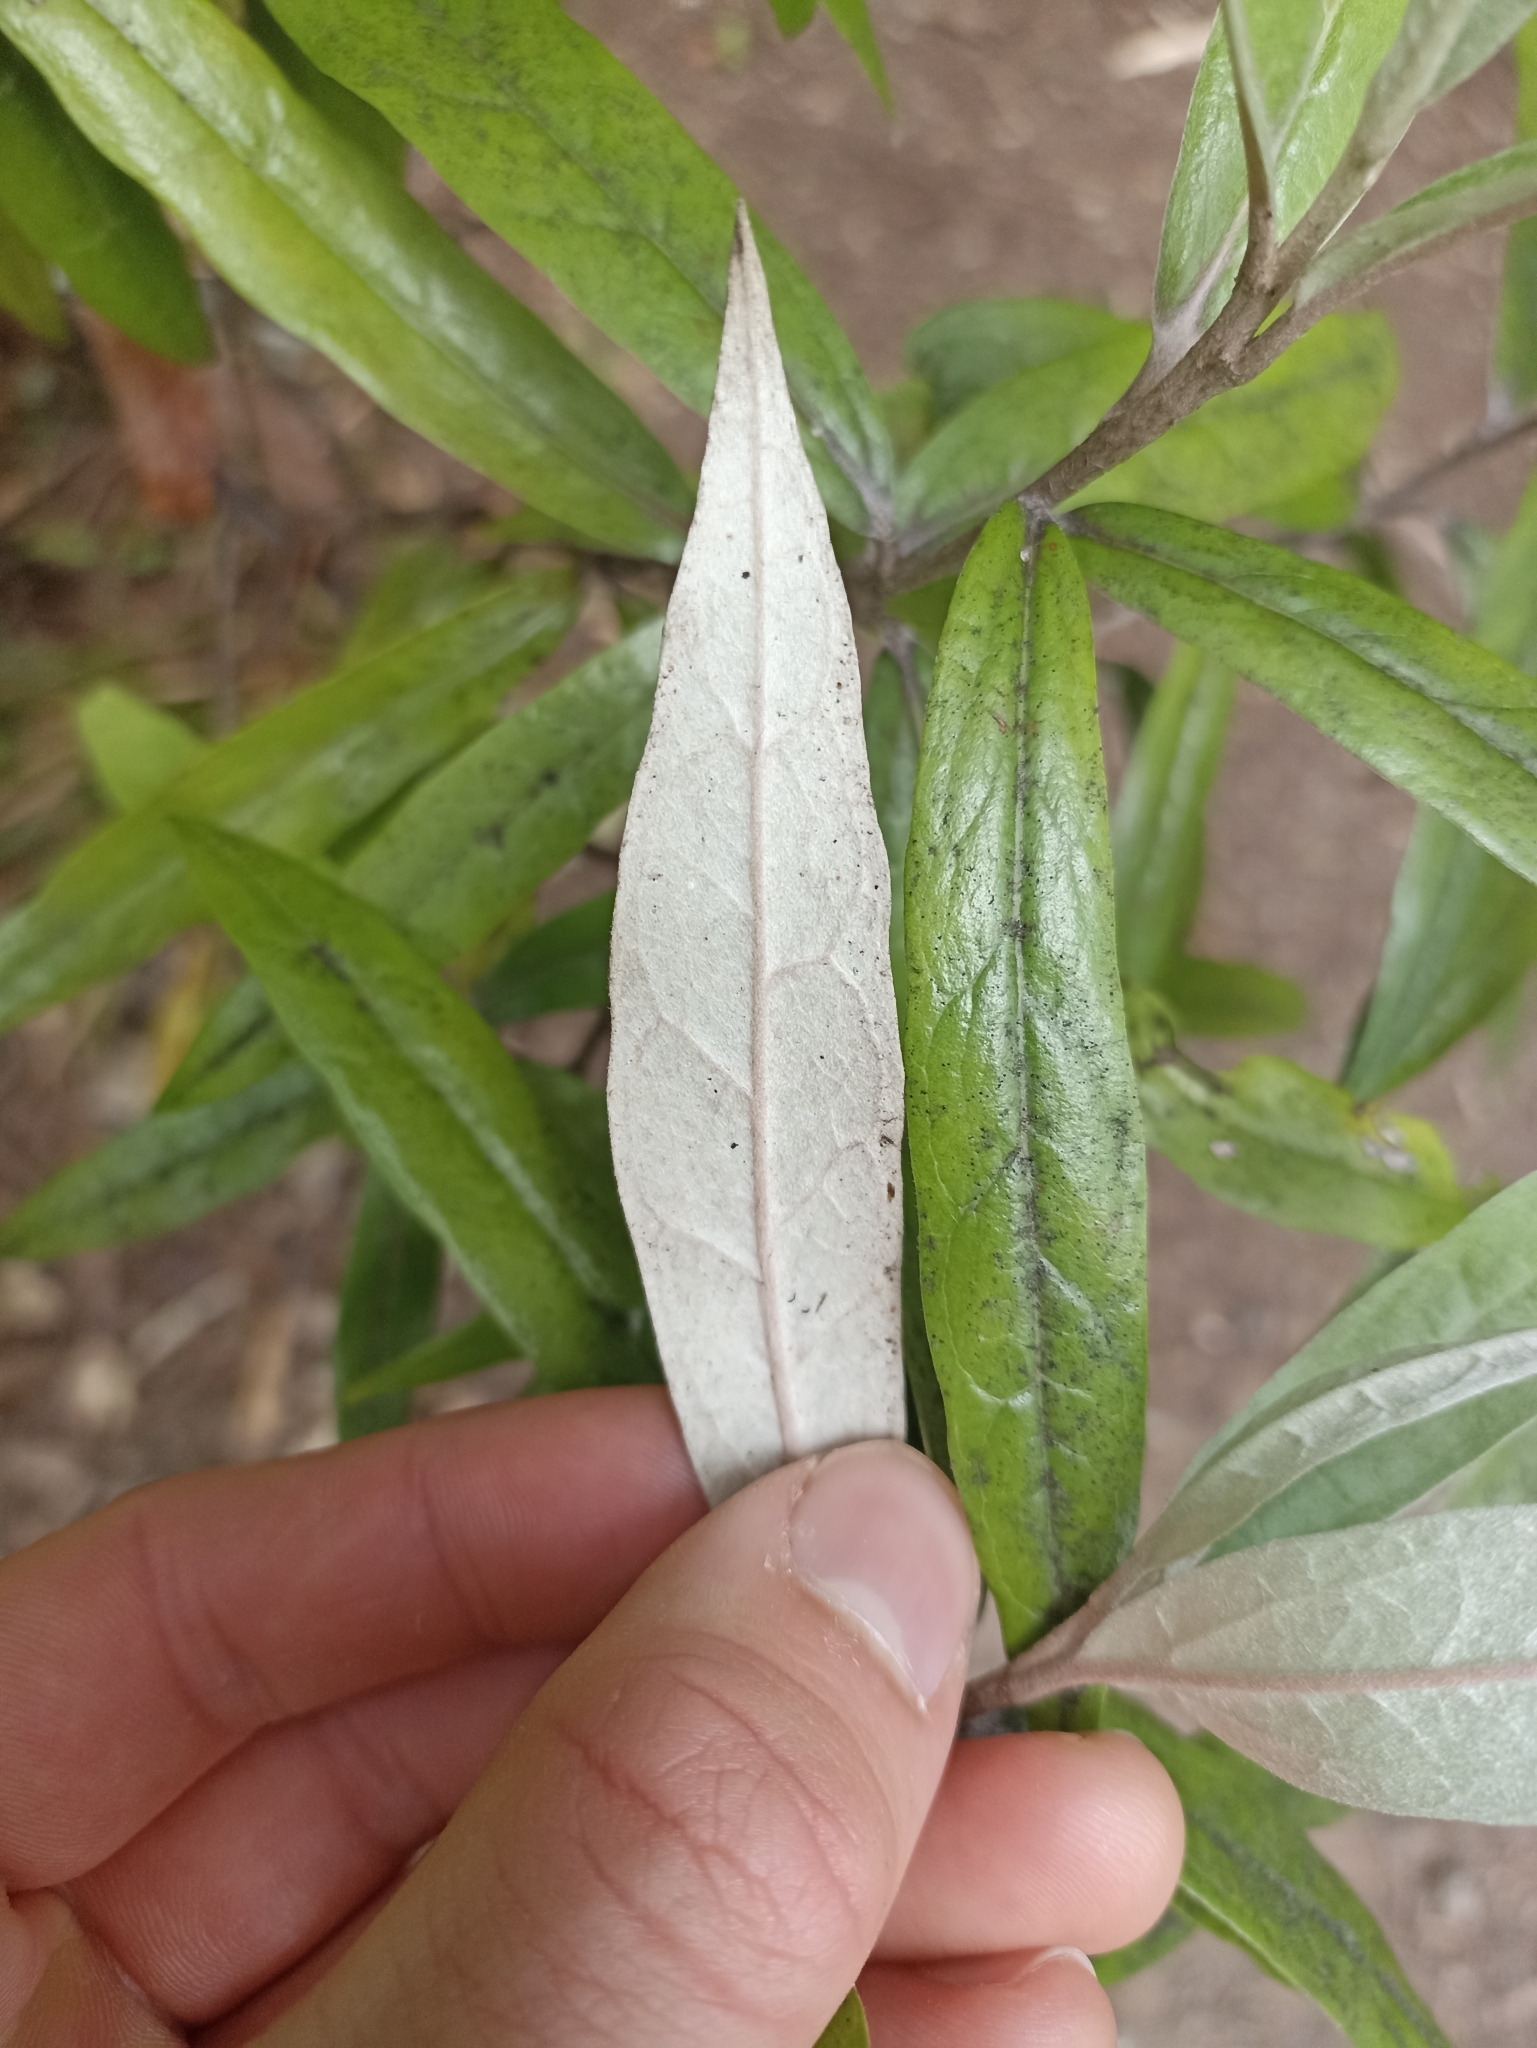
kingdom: Plantae
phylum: Tracheophyta
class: Magnoliopsida
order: Asterales
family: Argophyllaceae
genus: Corokia
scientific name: Corokia buddleioides
